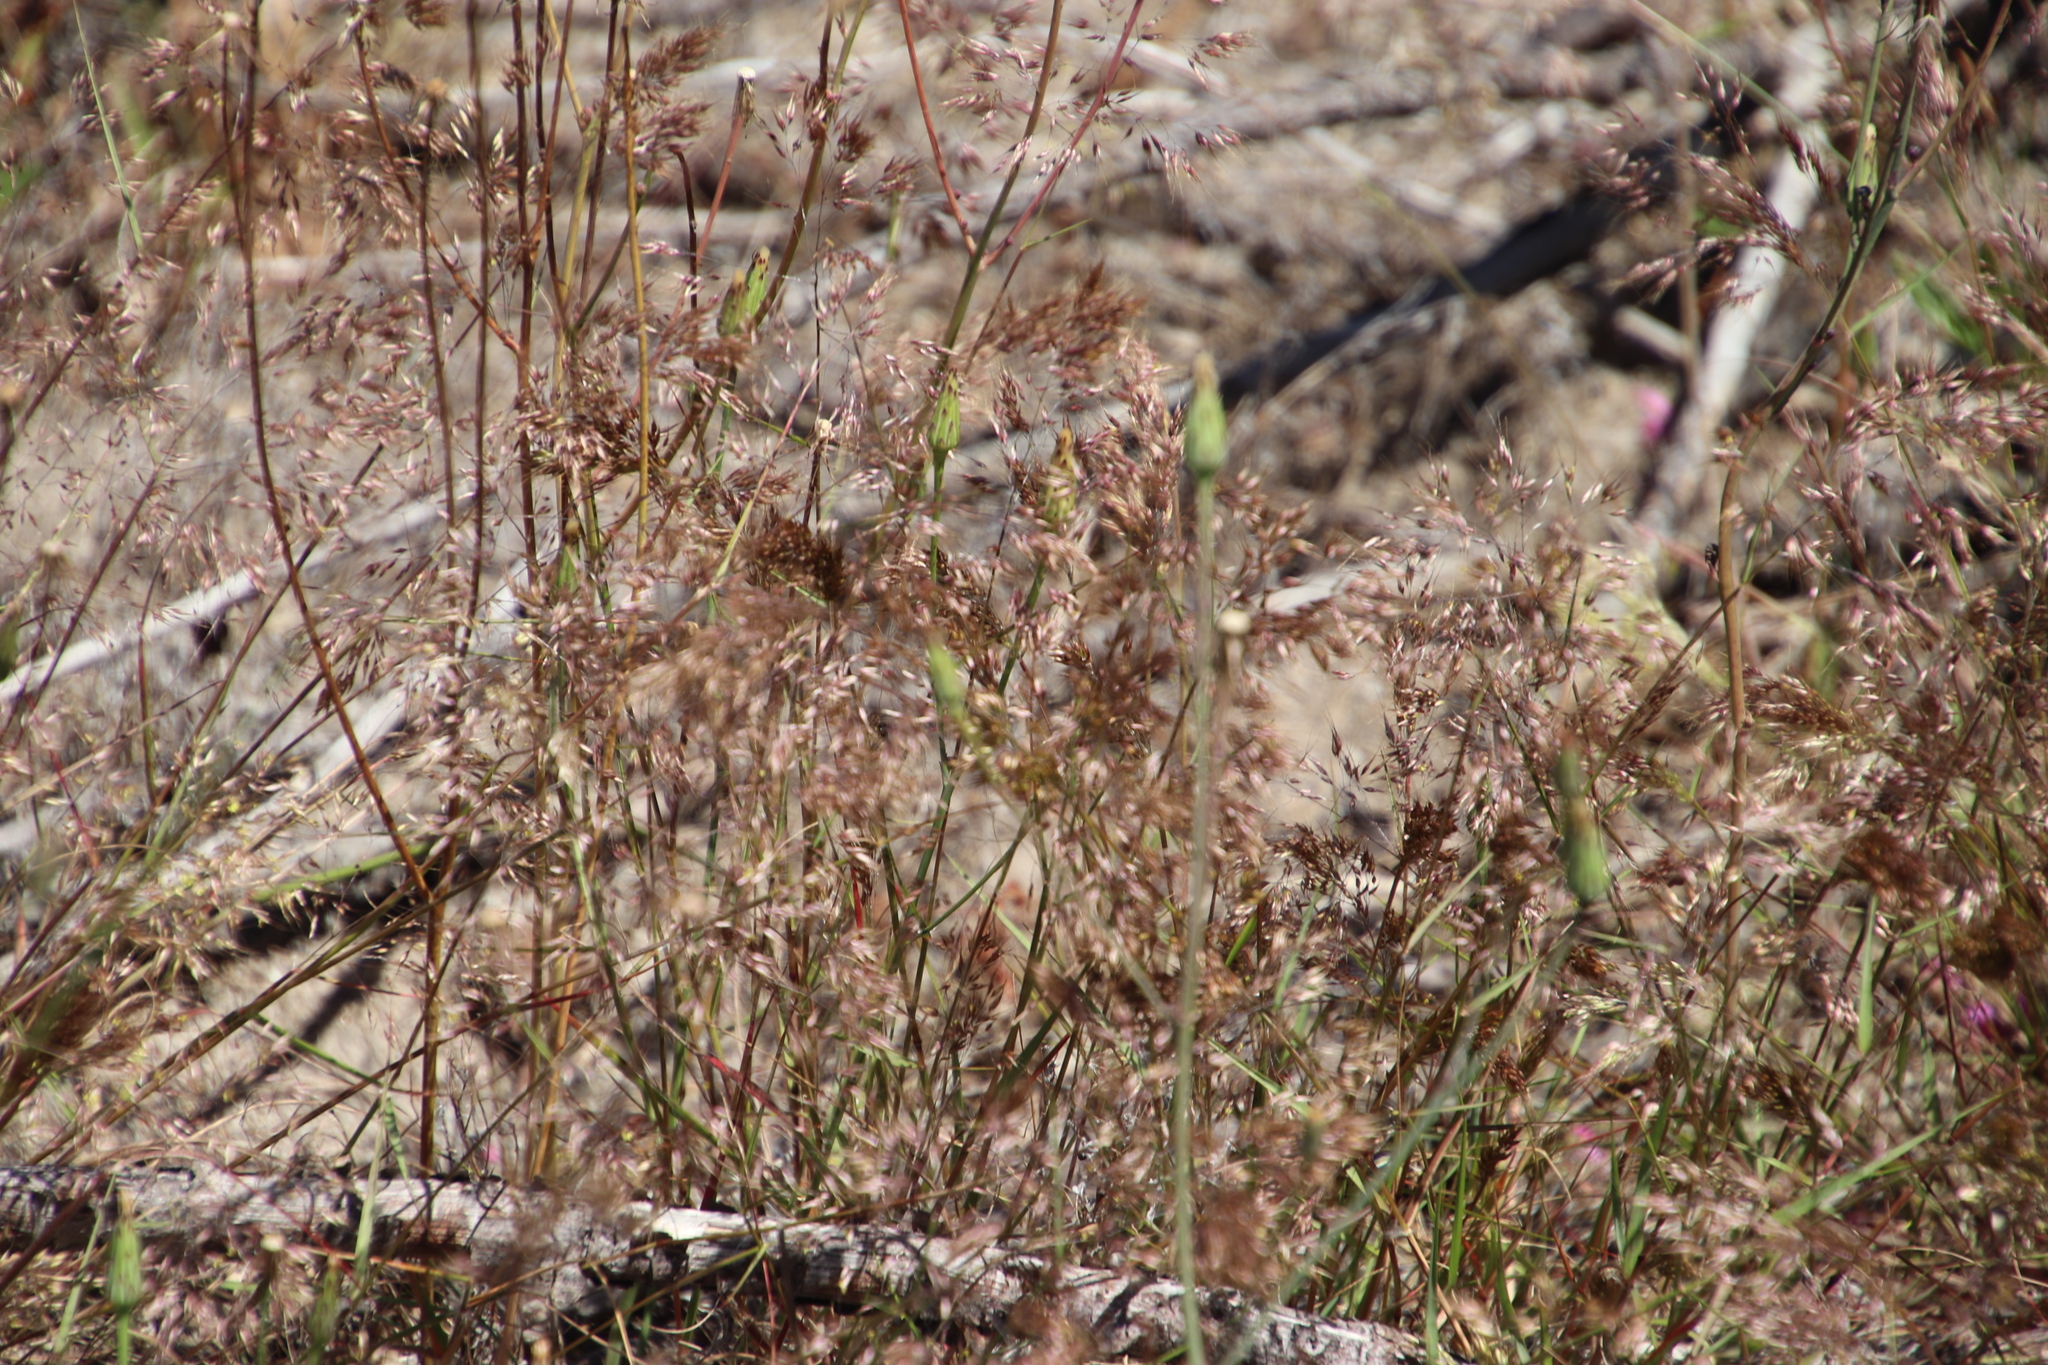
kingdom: Plantae
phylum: Tracheophyta
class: Liliopsida
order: Poales
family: Poaceae
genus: Pentameris
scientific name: Pentameris pallida
